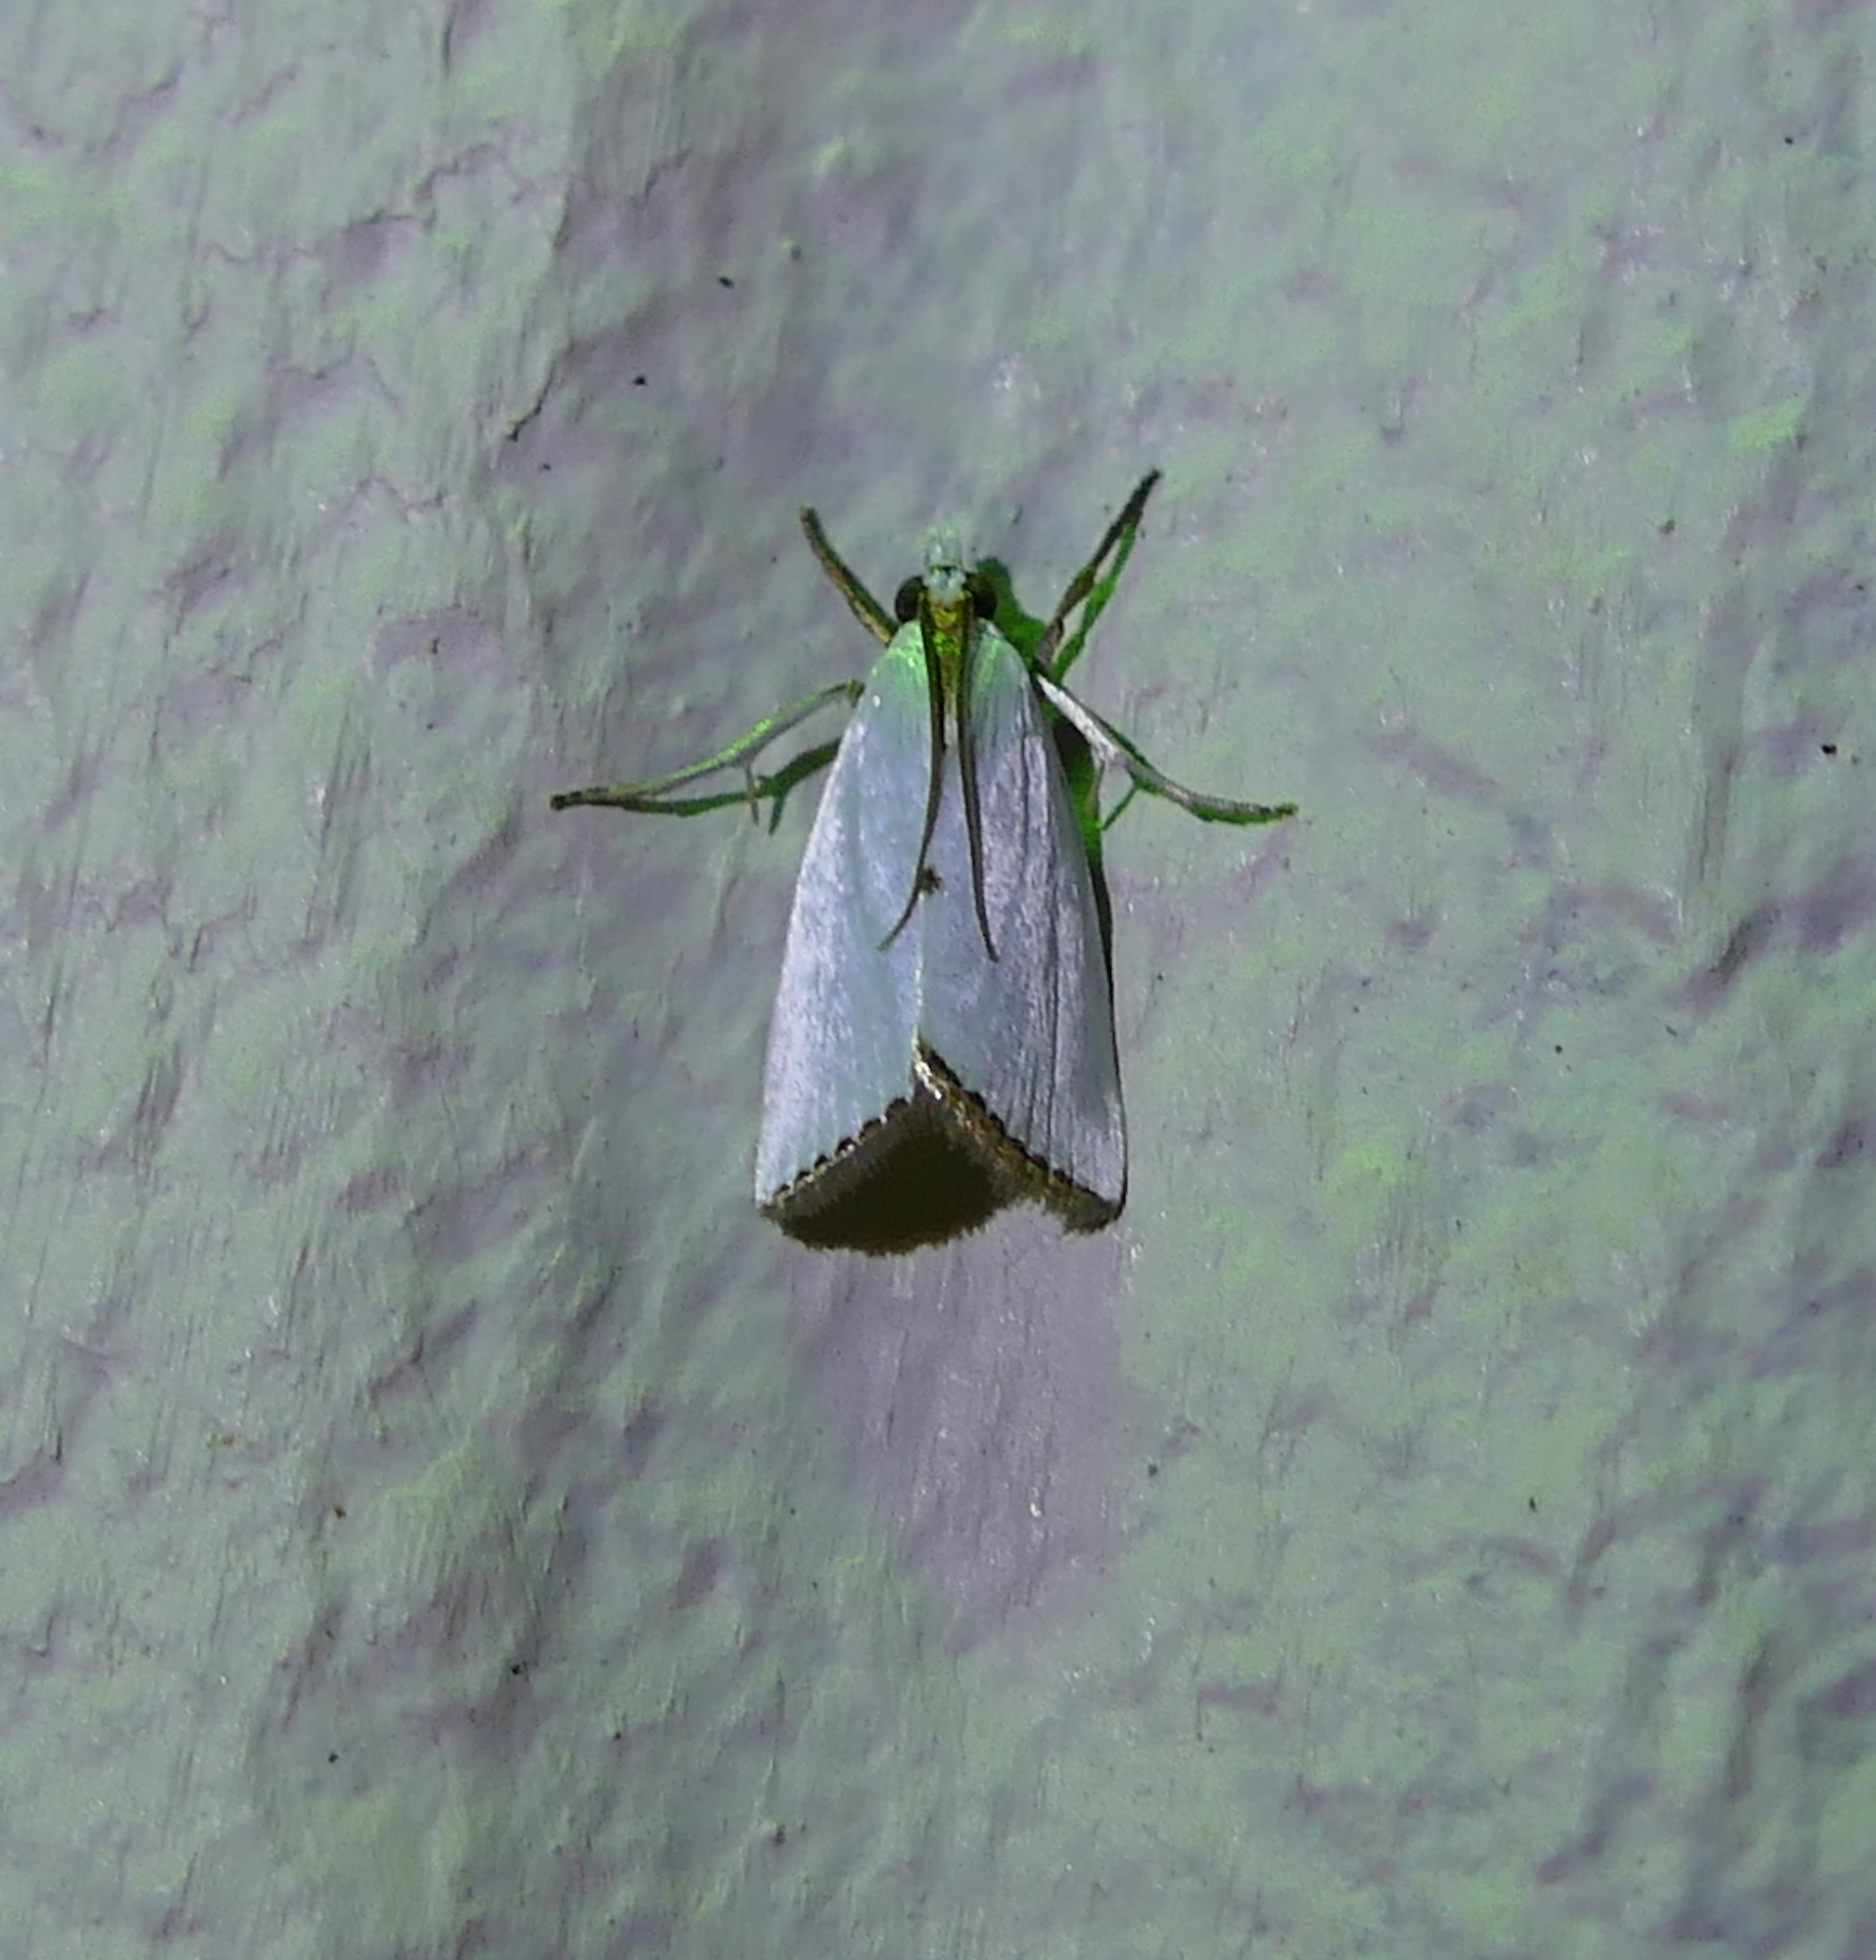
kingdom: Animalia
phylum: Arthropoda
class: Insecta
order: Lepidoptera
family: Crambidae
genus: Argyria
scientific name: Argyria nivalis
